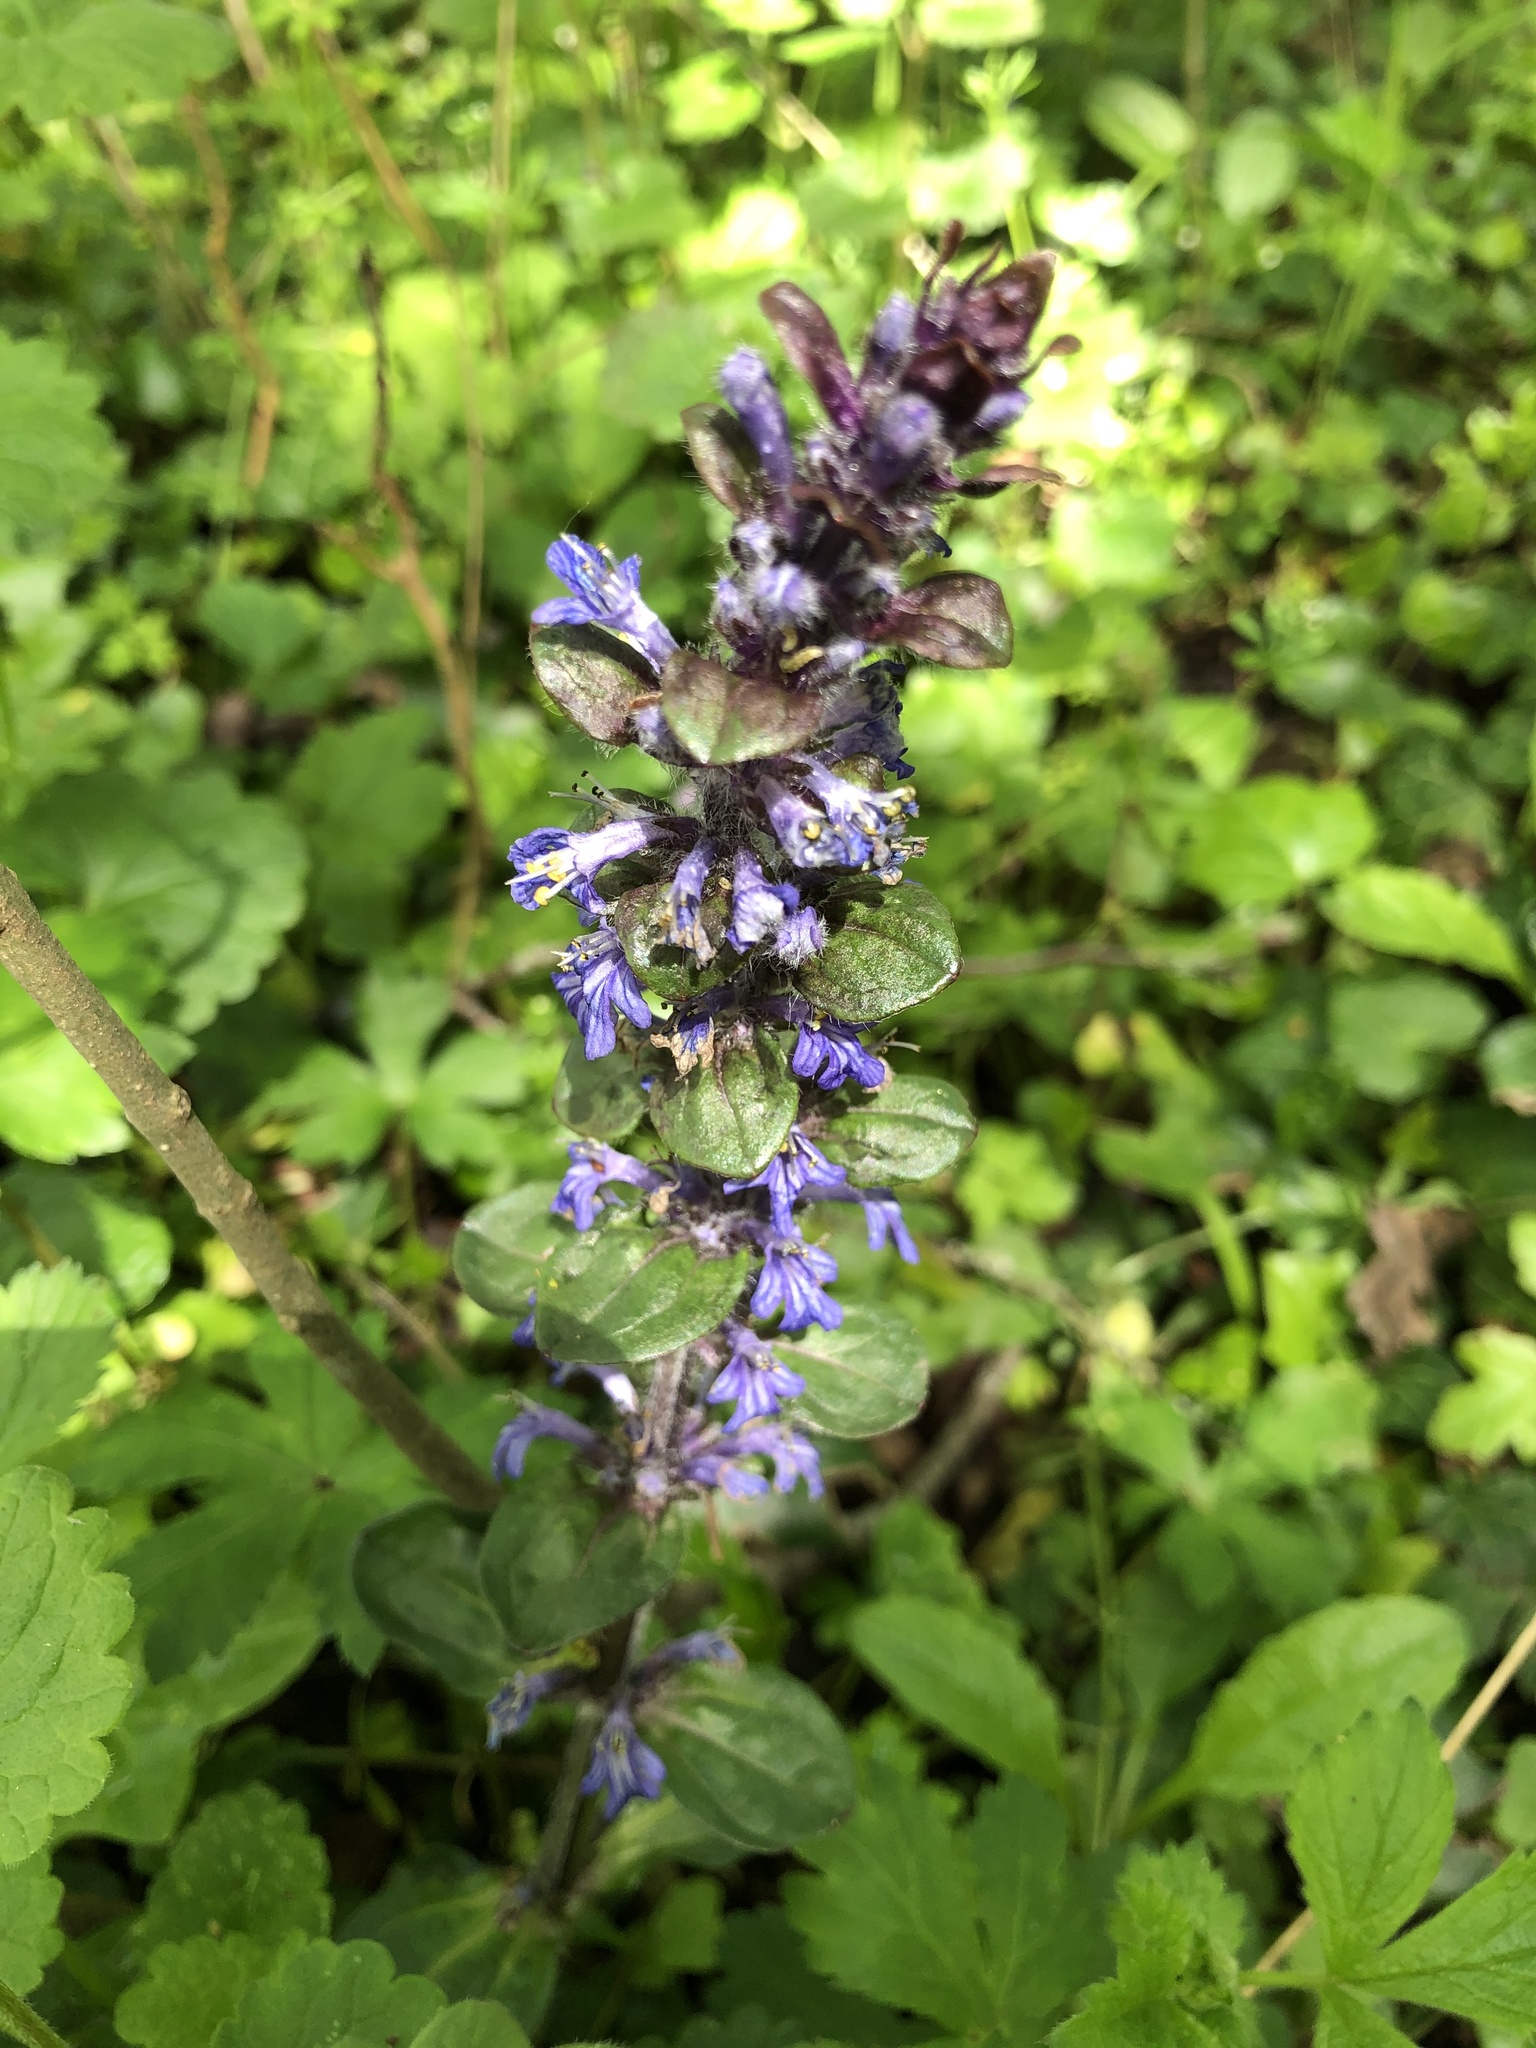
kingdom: Plantae
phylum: Tracheophyta
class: Magnoliopsida
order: Lamiales
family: Lamiaceae
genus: Ajuga
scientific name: Ajuga reptans
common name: Bugle
